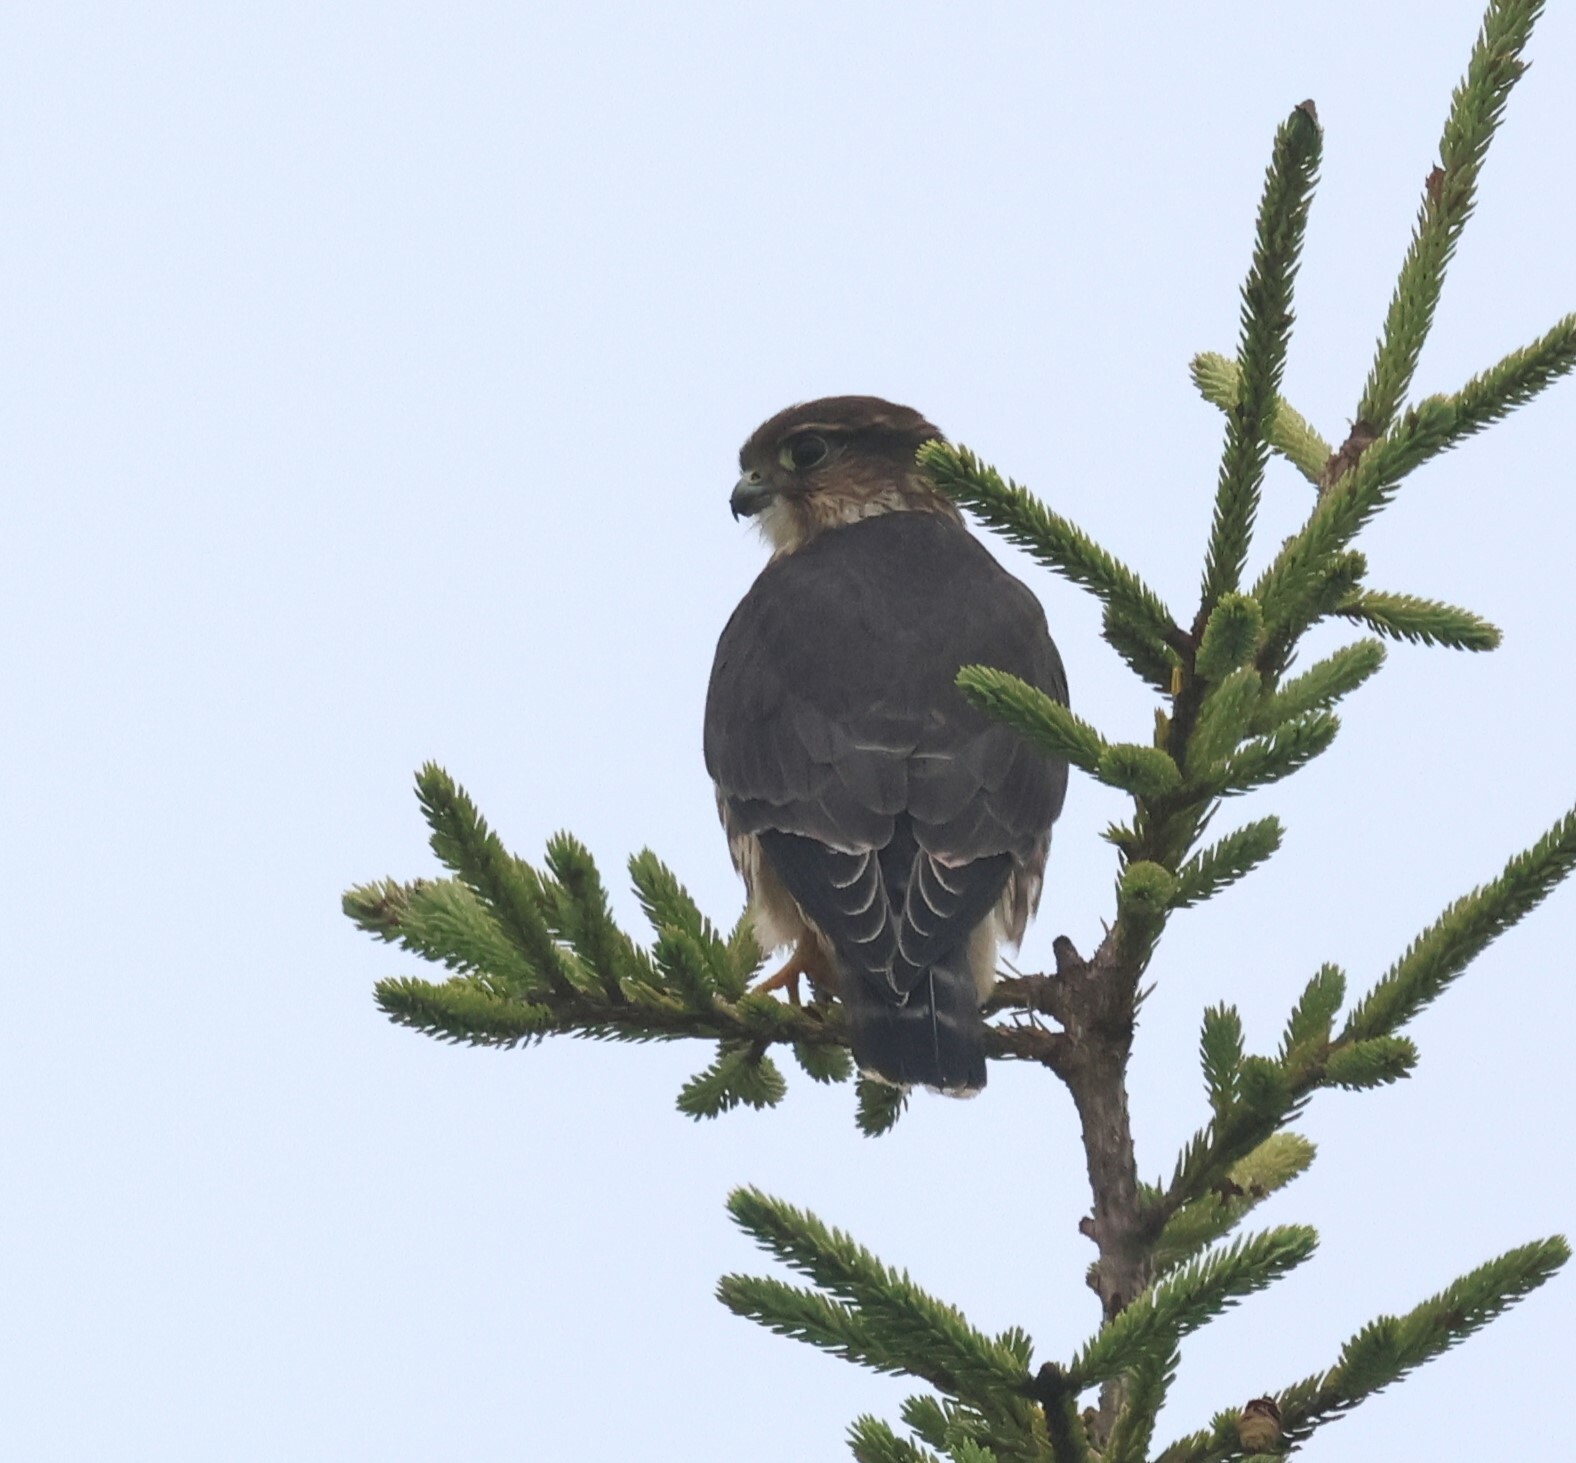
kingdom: Animalia
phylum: Chordata
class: Aves
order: Falconiformes
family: Falconidae
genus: Falco
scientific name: Falco columbarius
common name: Merlin
